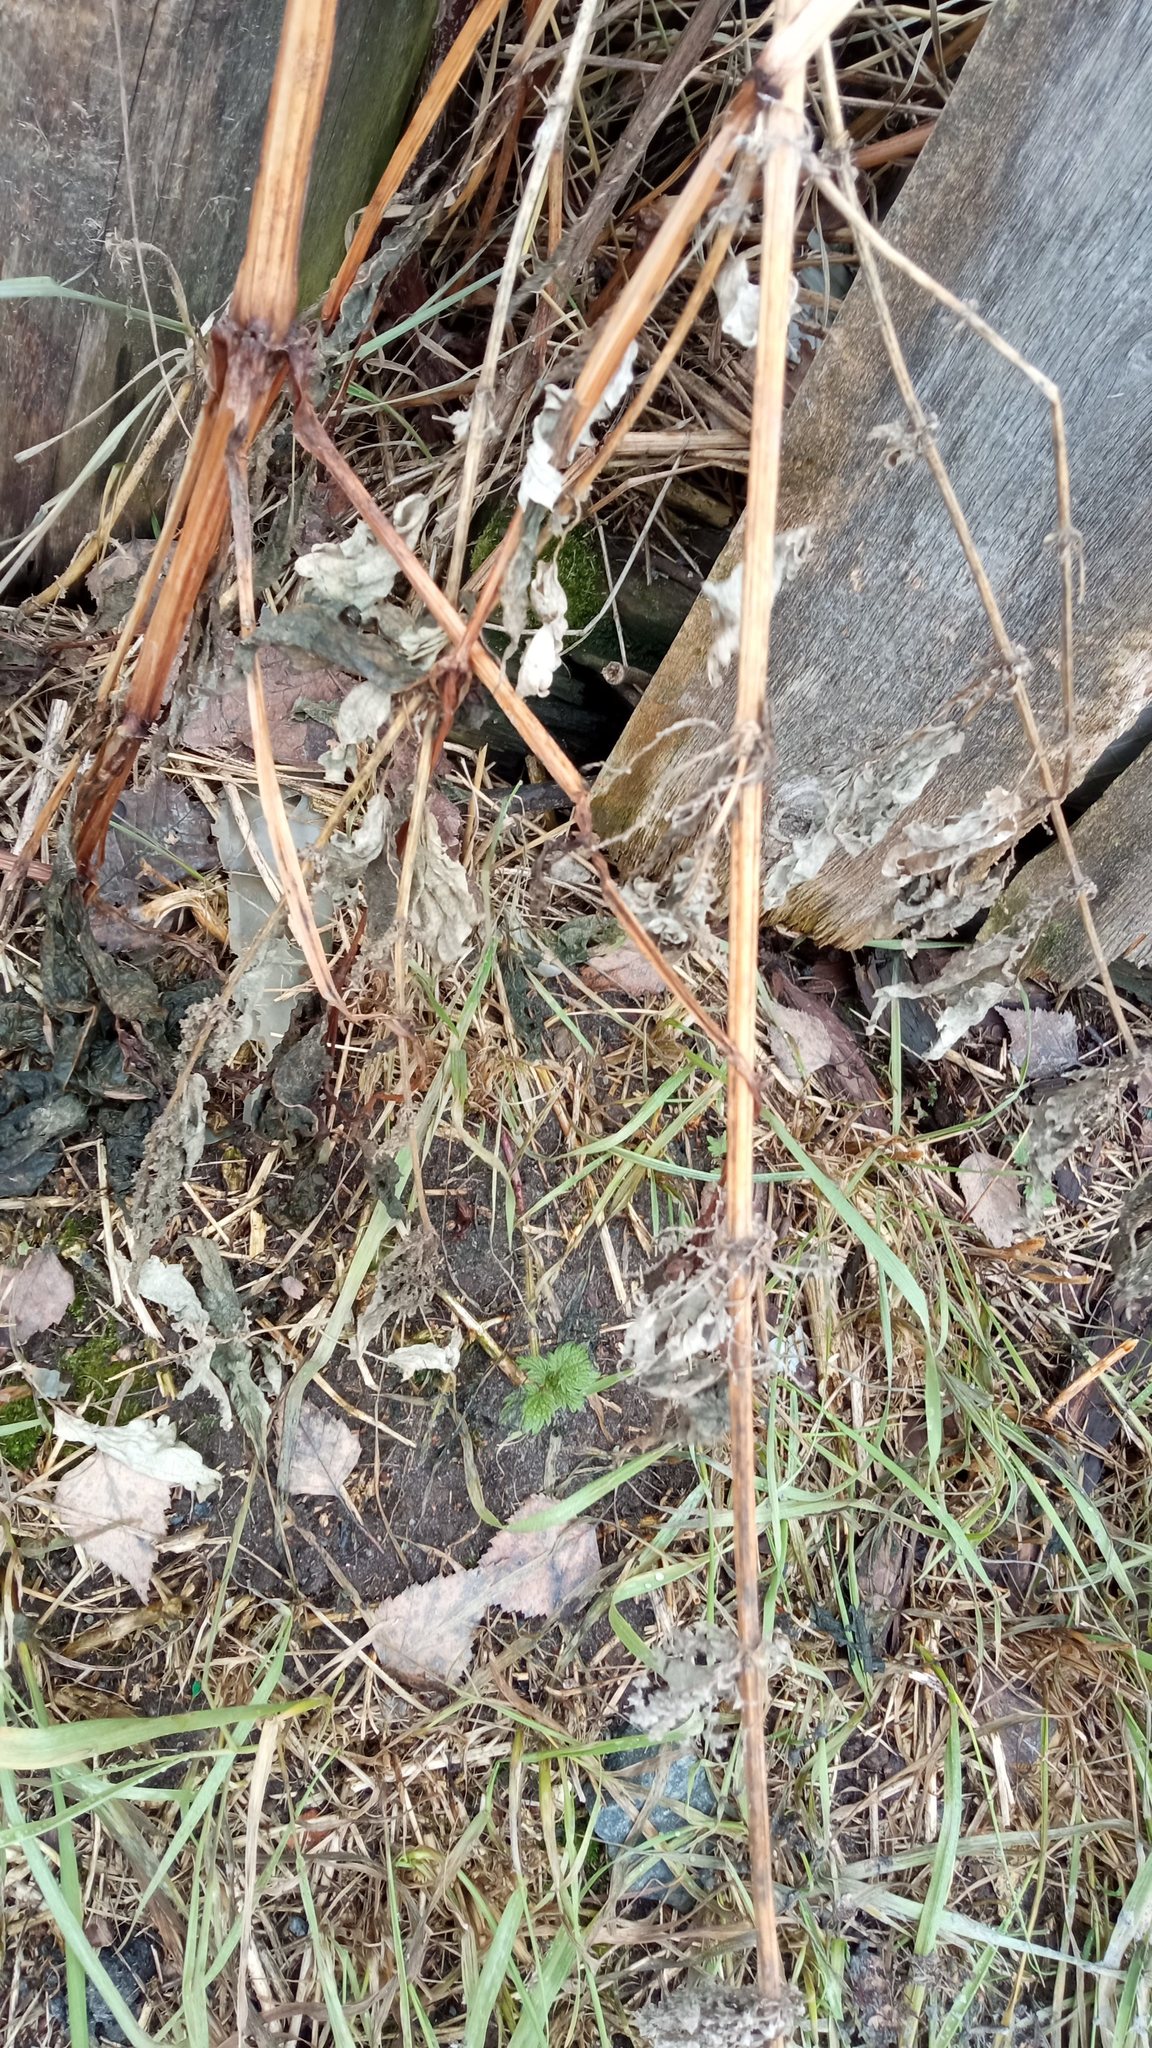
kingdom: Plantae
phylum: Tracheophyta
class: Magnoliopsida
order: Rosales
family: Urticaceae
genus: Urtica
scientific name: Urtica dioica
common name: Common nettle
